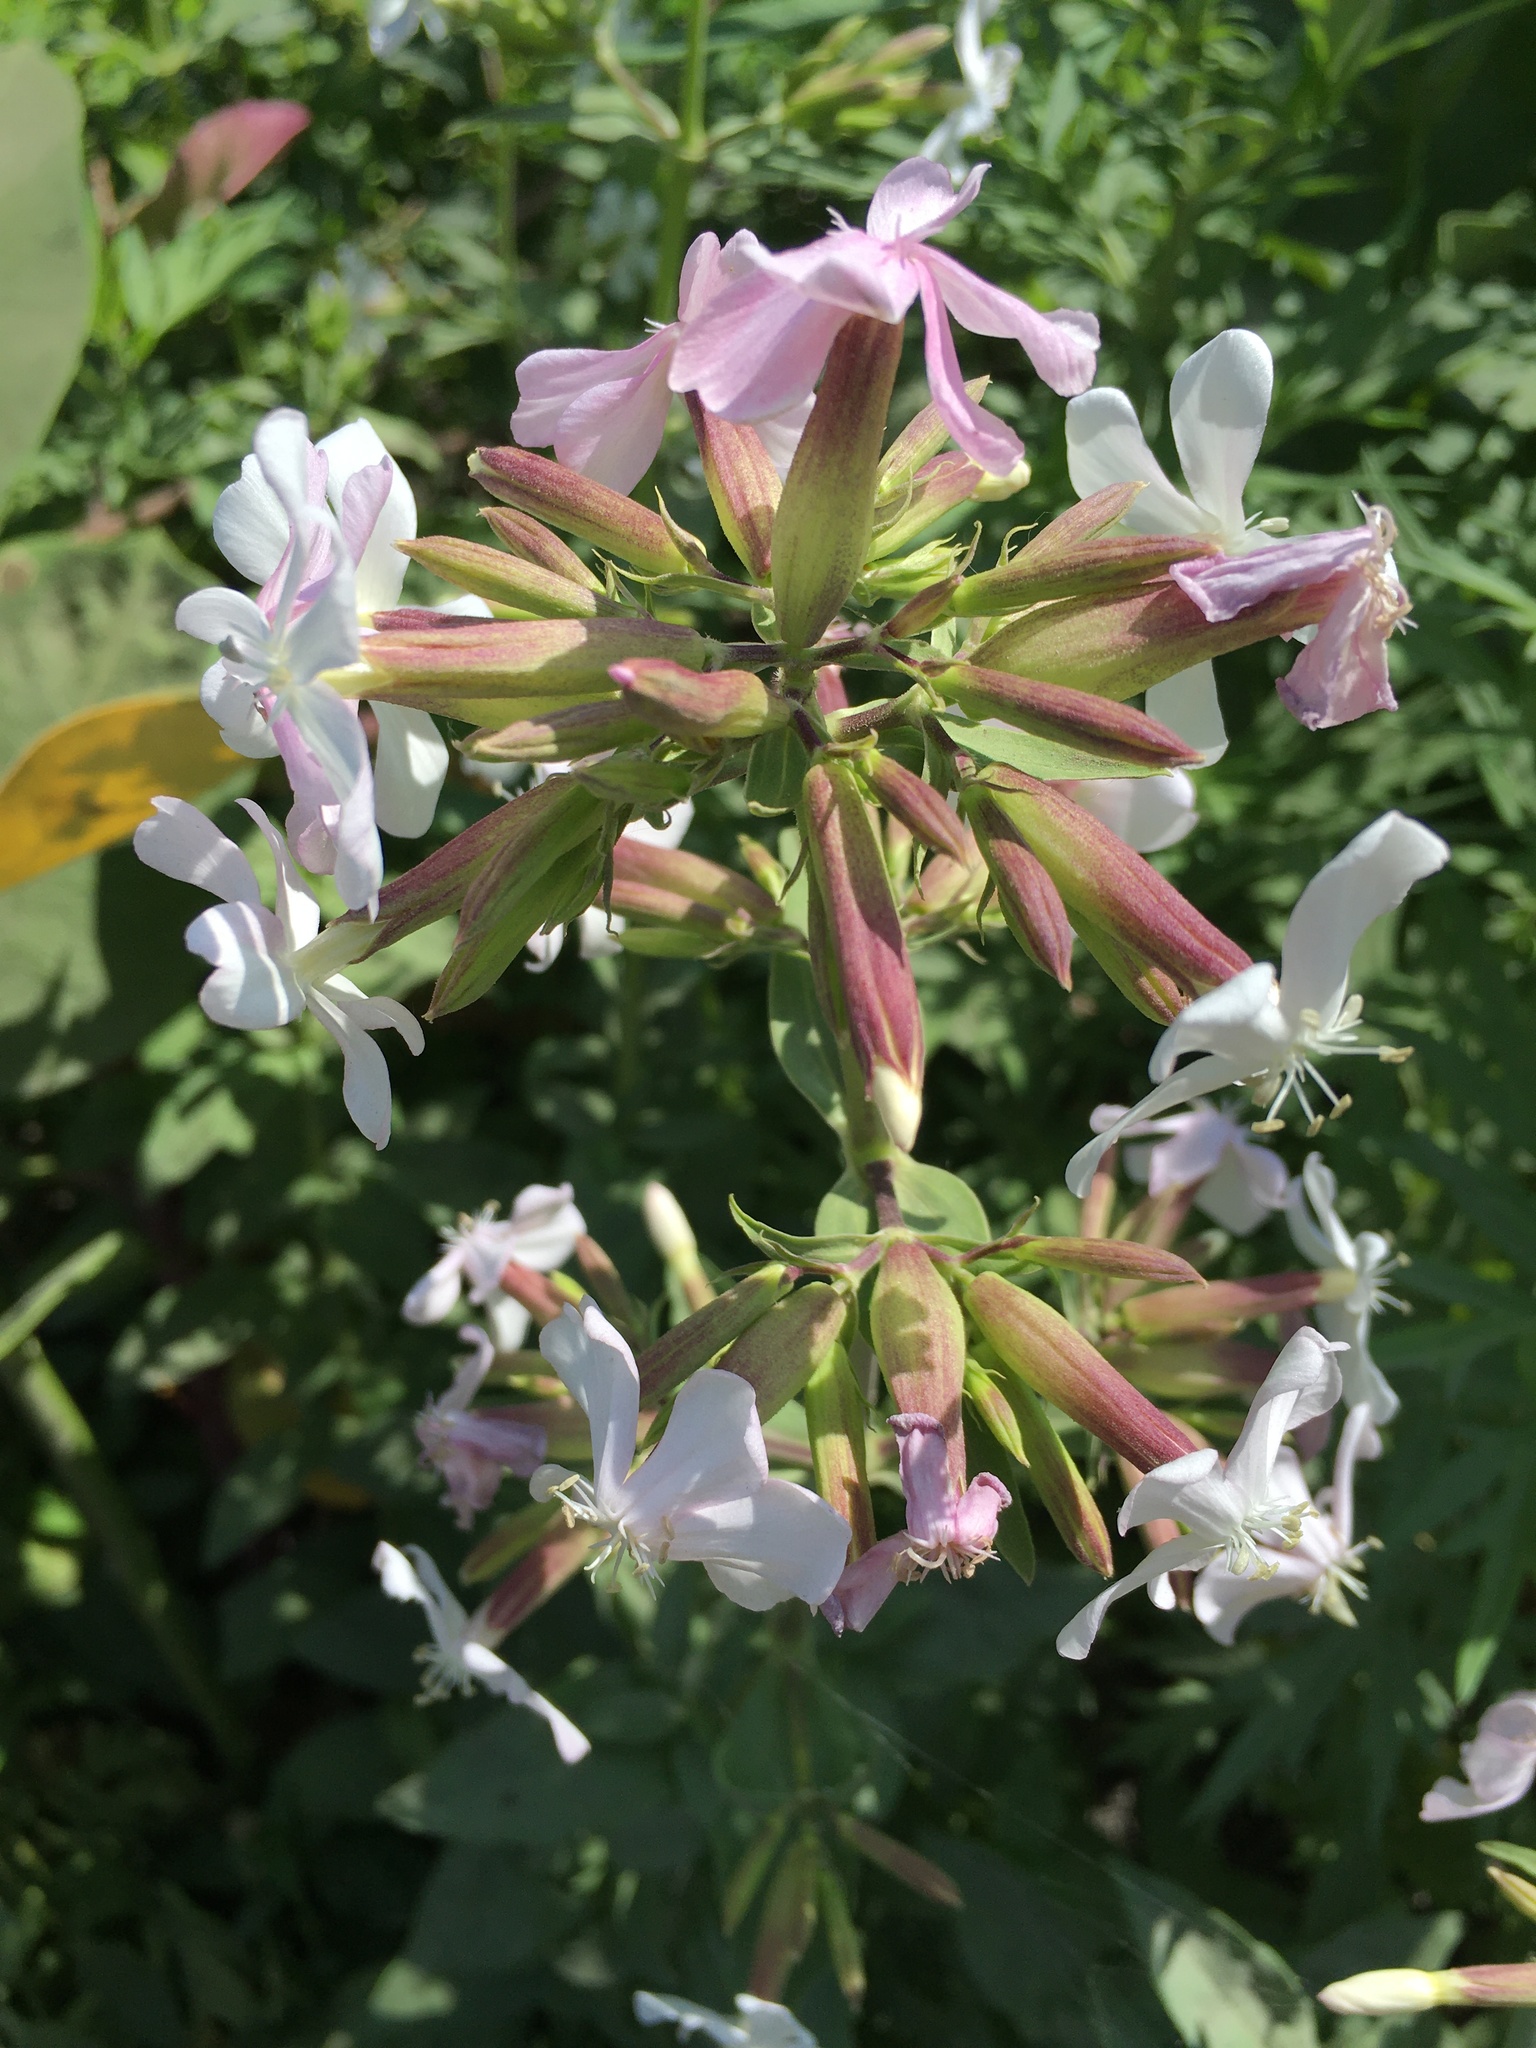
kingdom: Plantae
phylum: Tracheophyta
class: Magnoliopsida
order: Caryophyllales
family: Caryophyllaceae
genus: Saponaria
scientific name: Saponaria officinalis
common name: Soapwort
